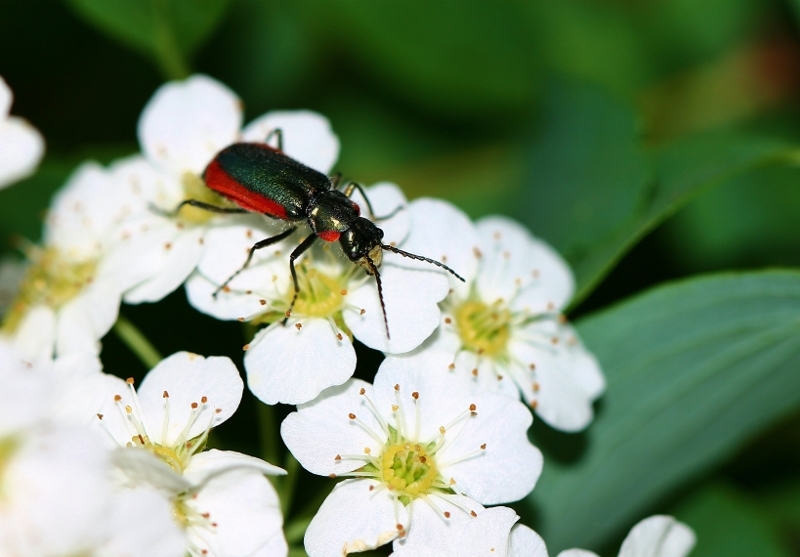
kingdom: Animalia
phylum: Arthropoda
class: Insecta
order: Coleoptera
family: Melyridae
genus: Malachius
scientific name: Malachius aeneus
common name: Scarlet malachite beetle
